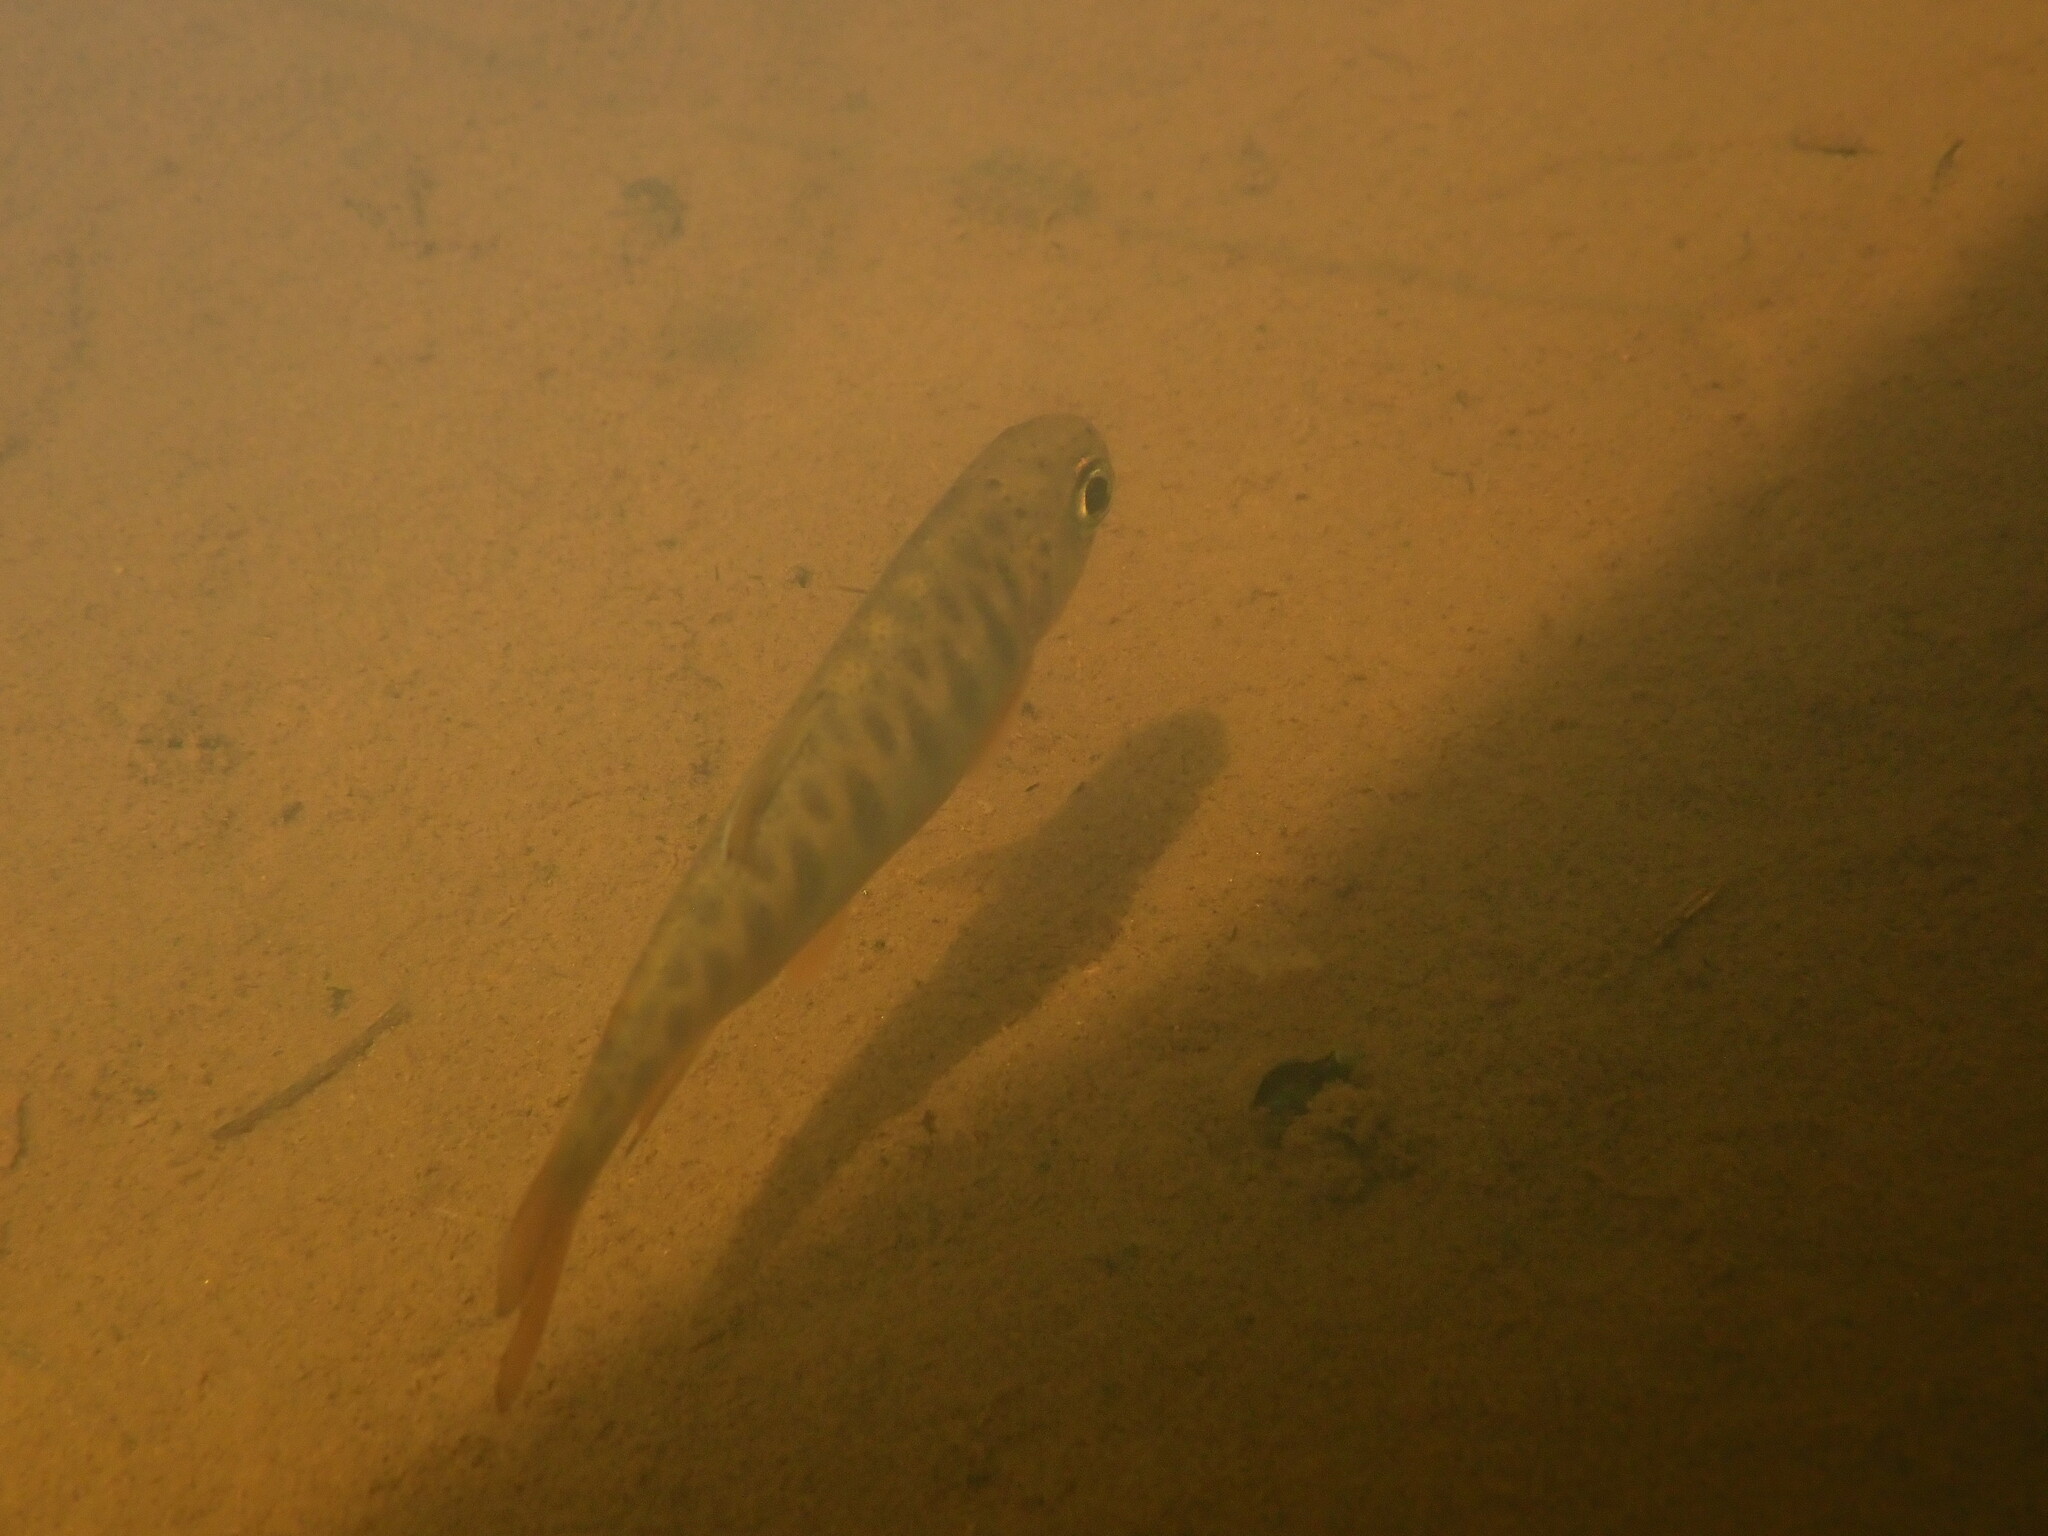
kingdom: Animalia
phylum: Chordata
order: Salmoniformes
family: Salmonidae
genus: Oncorhynchus
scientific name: Oncorhynchus kisutch
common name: Coho salmon
